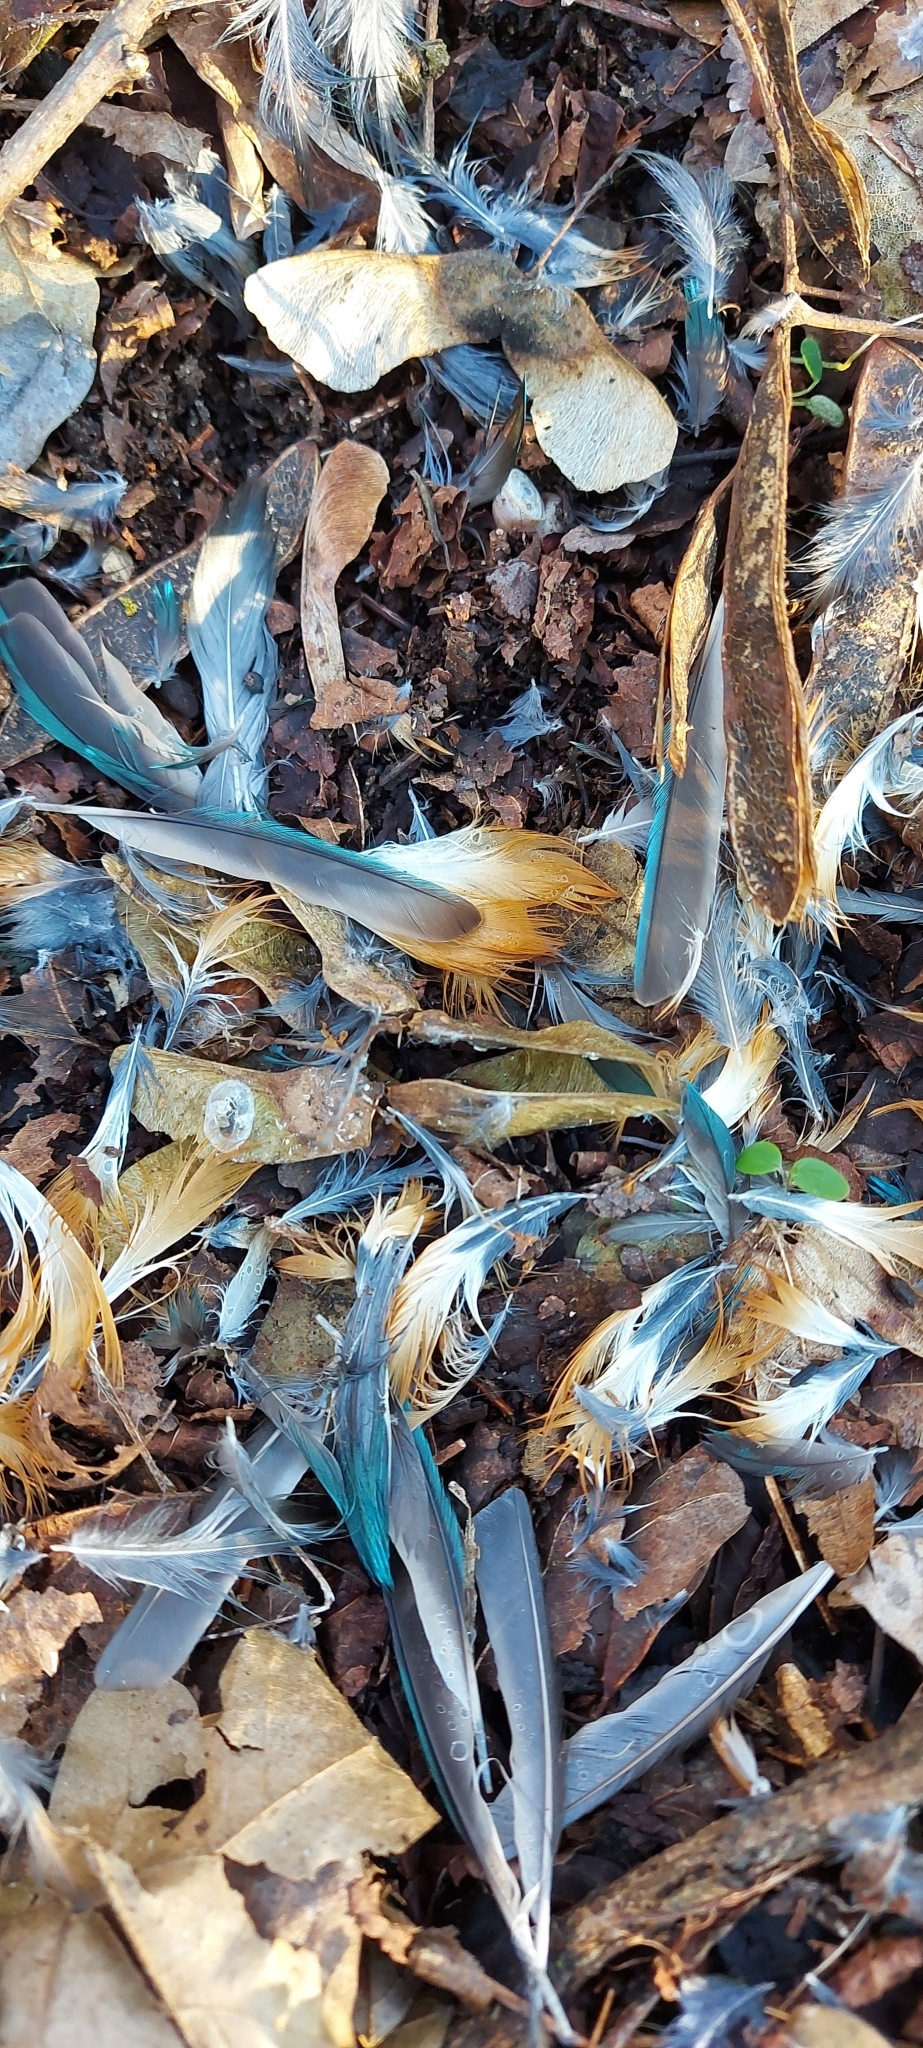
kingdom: Animalia
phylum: Chordata
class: Aves
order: Coraciiformes
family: Alcedinidae
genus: Alcedo
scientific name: Alcedo atthis
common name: Common kingfisher
